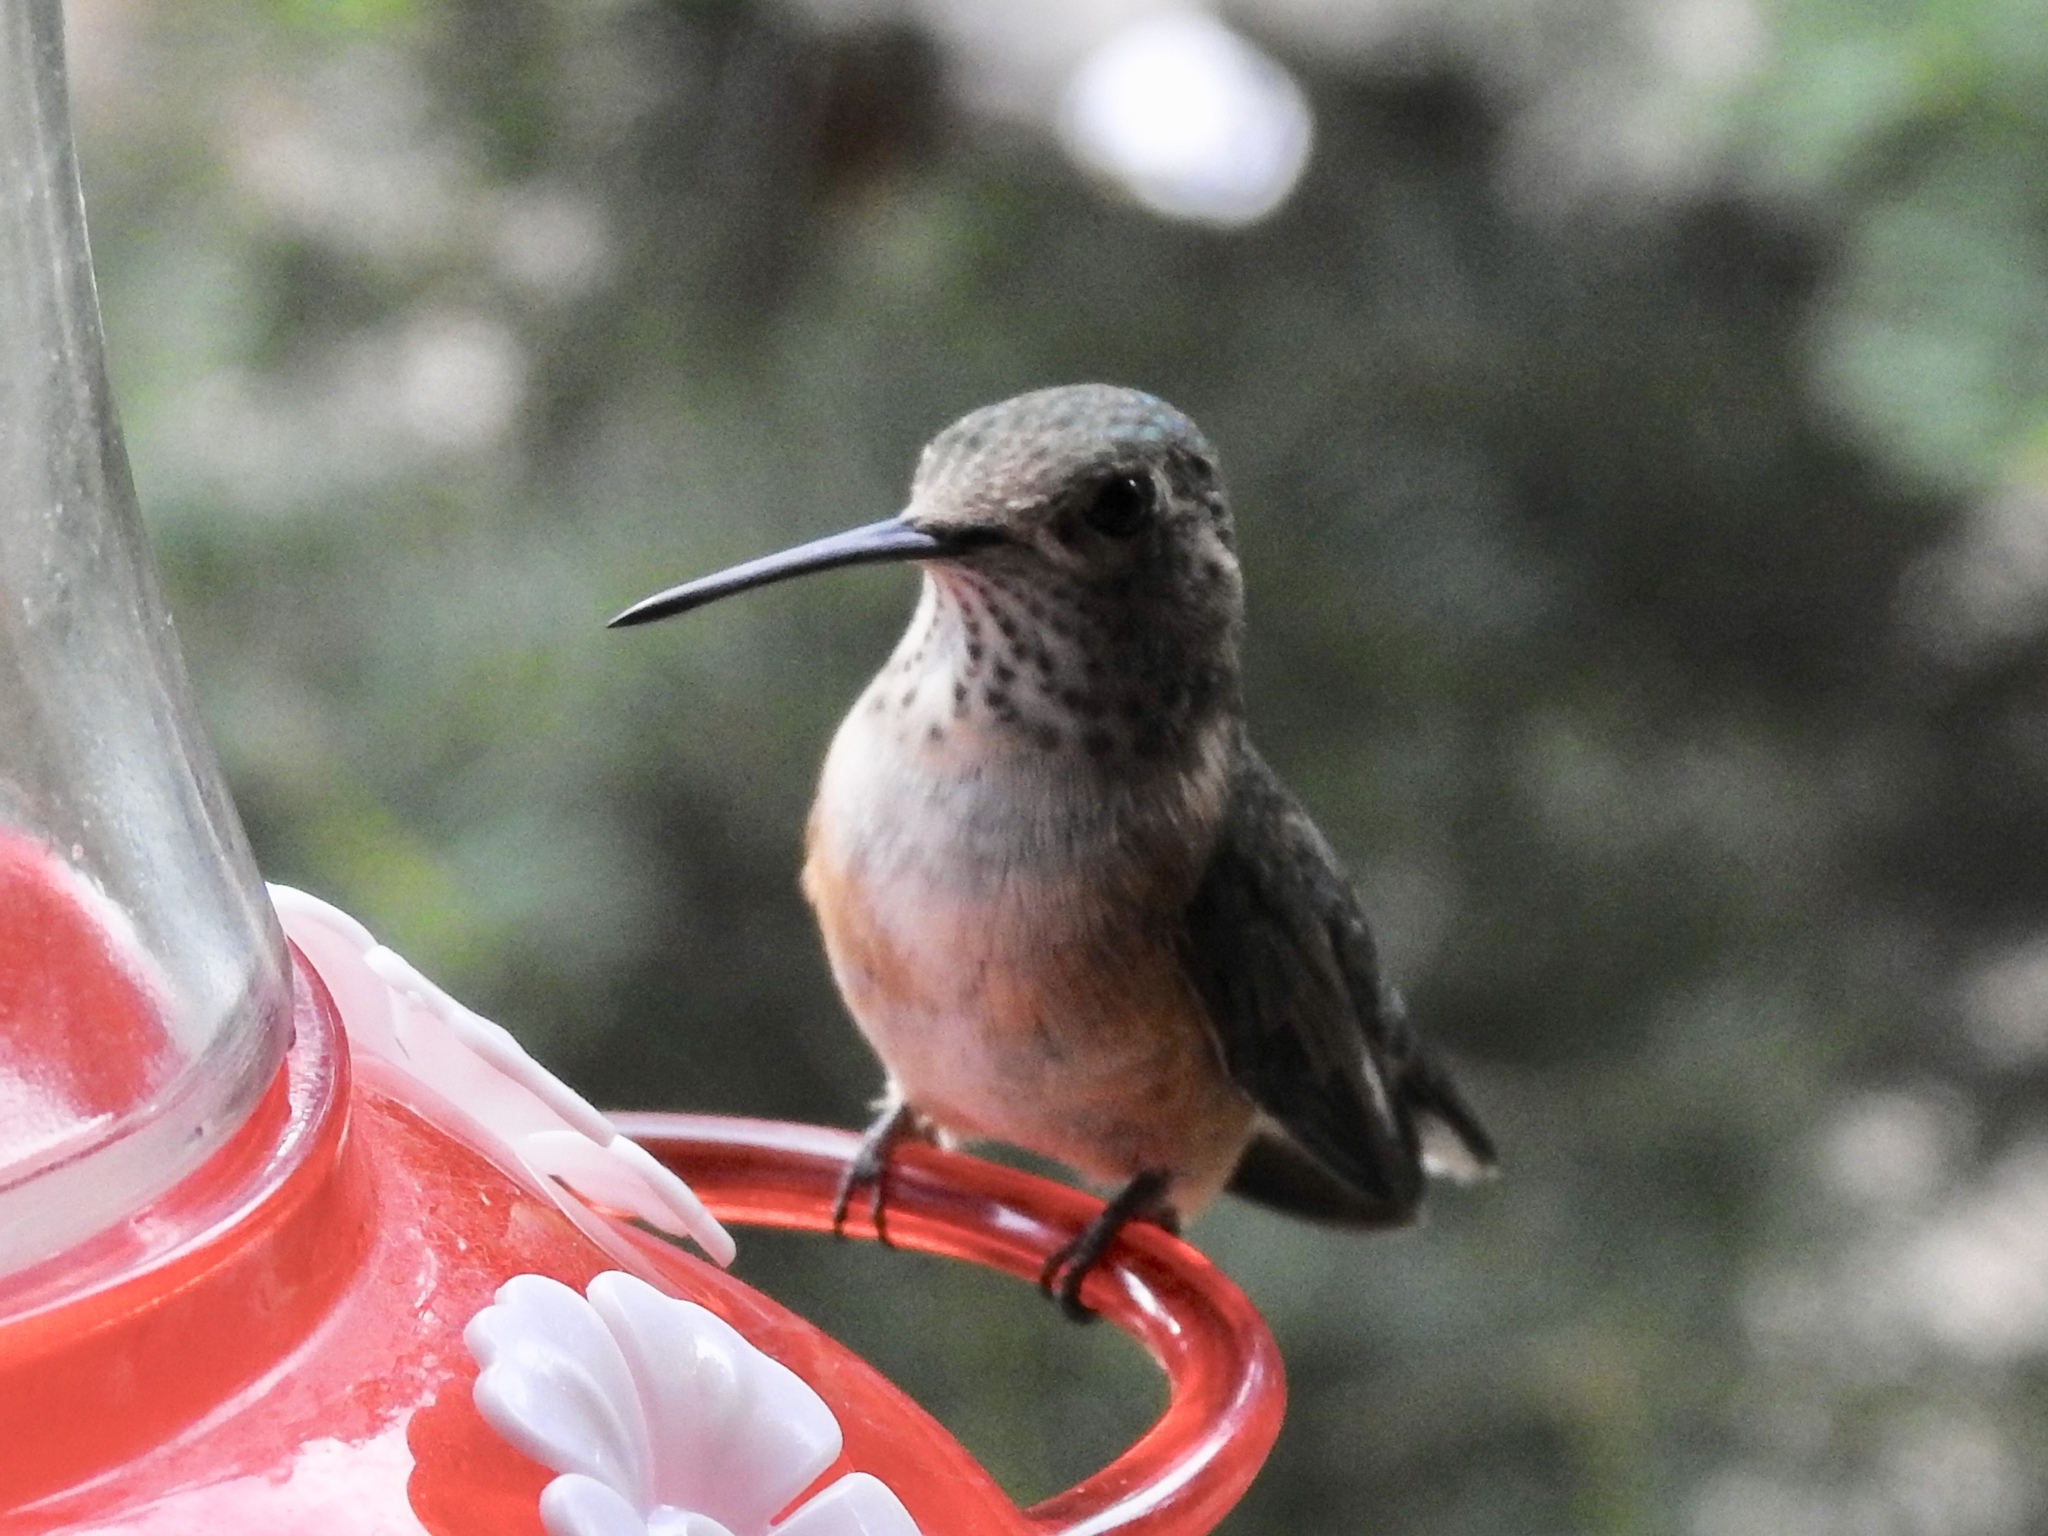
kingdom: Animalia
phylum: Chordata
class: Aves
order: Apodiformes
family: Trochilidae
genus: Selasphorus
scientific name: Selasphorus platycercus
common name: Broad-tailed hummingbird
